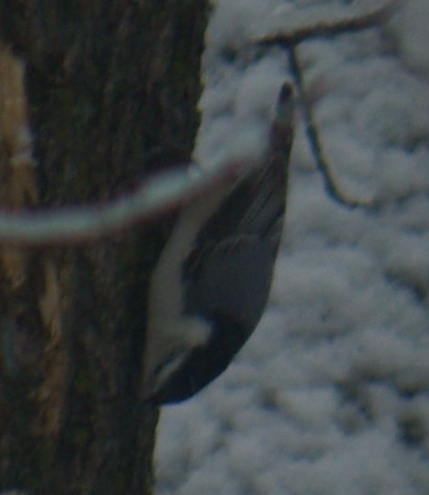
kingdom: Animalia
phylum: Chordata
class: Aves
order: Passeriformes
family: Sittidae
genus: Sitta
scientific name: Sitta carolinensis
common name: White-breasted nuthatch
